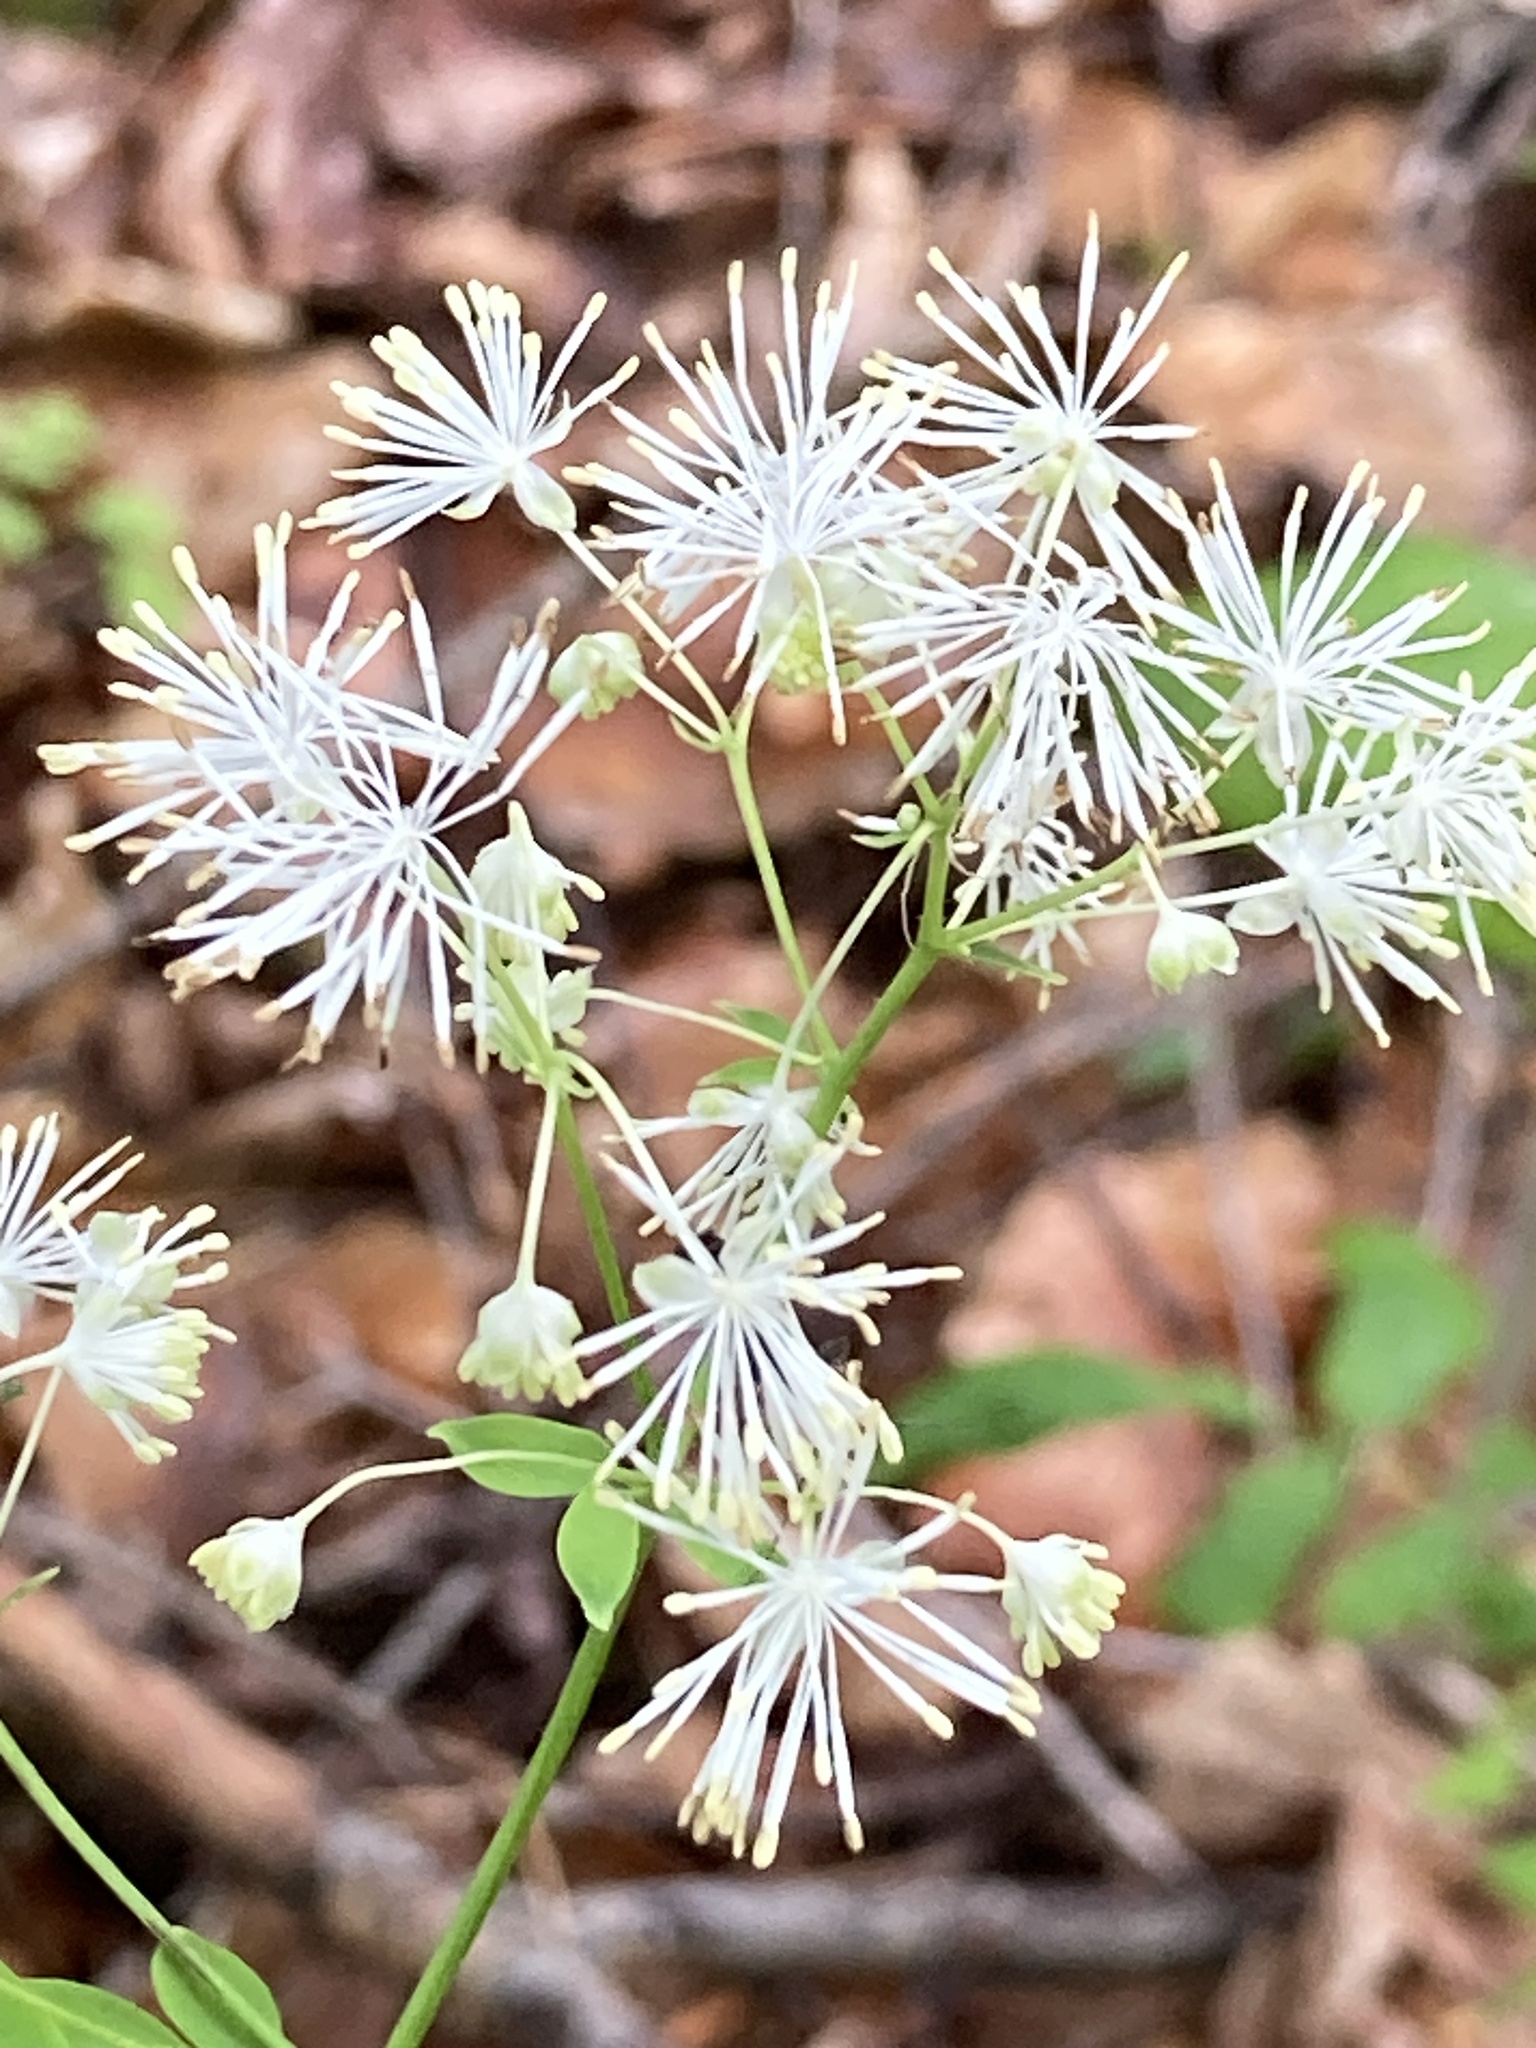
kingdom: Plantae
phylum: Tracheophyta
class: Magnoliopsida
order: Ranunculales
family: Ranunculaceae
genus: Thalictrum
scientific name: Thalictrum pubescens
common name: King-of-the-meadow
